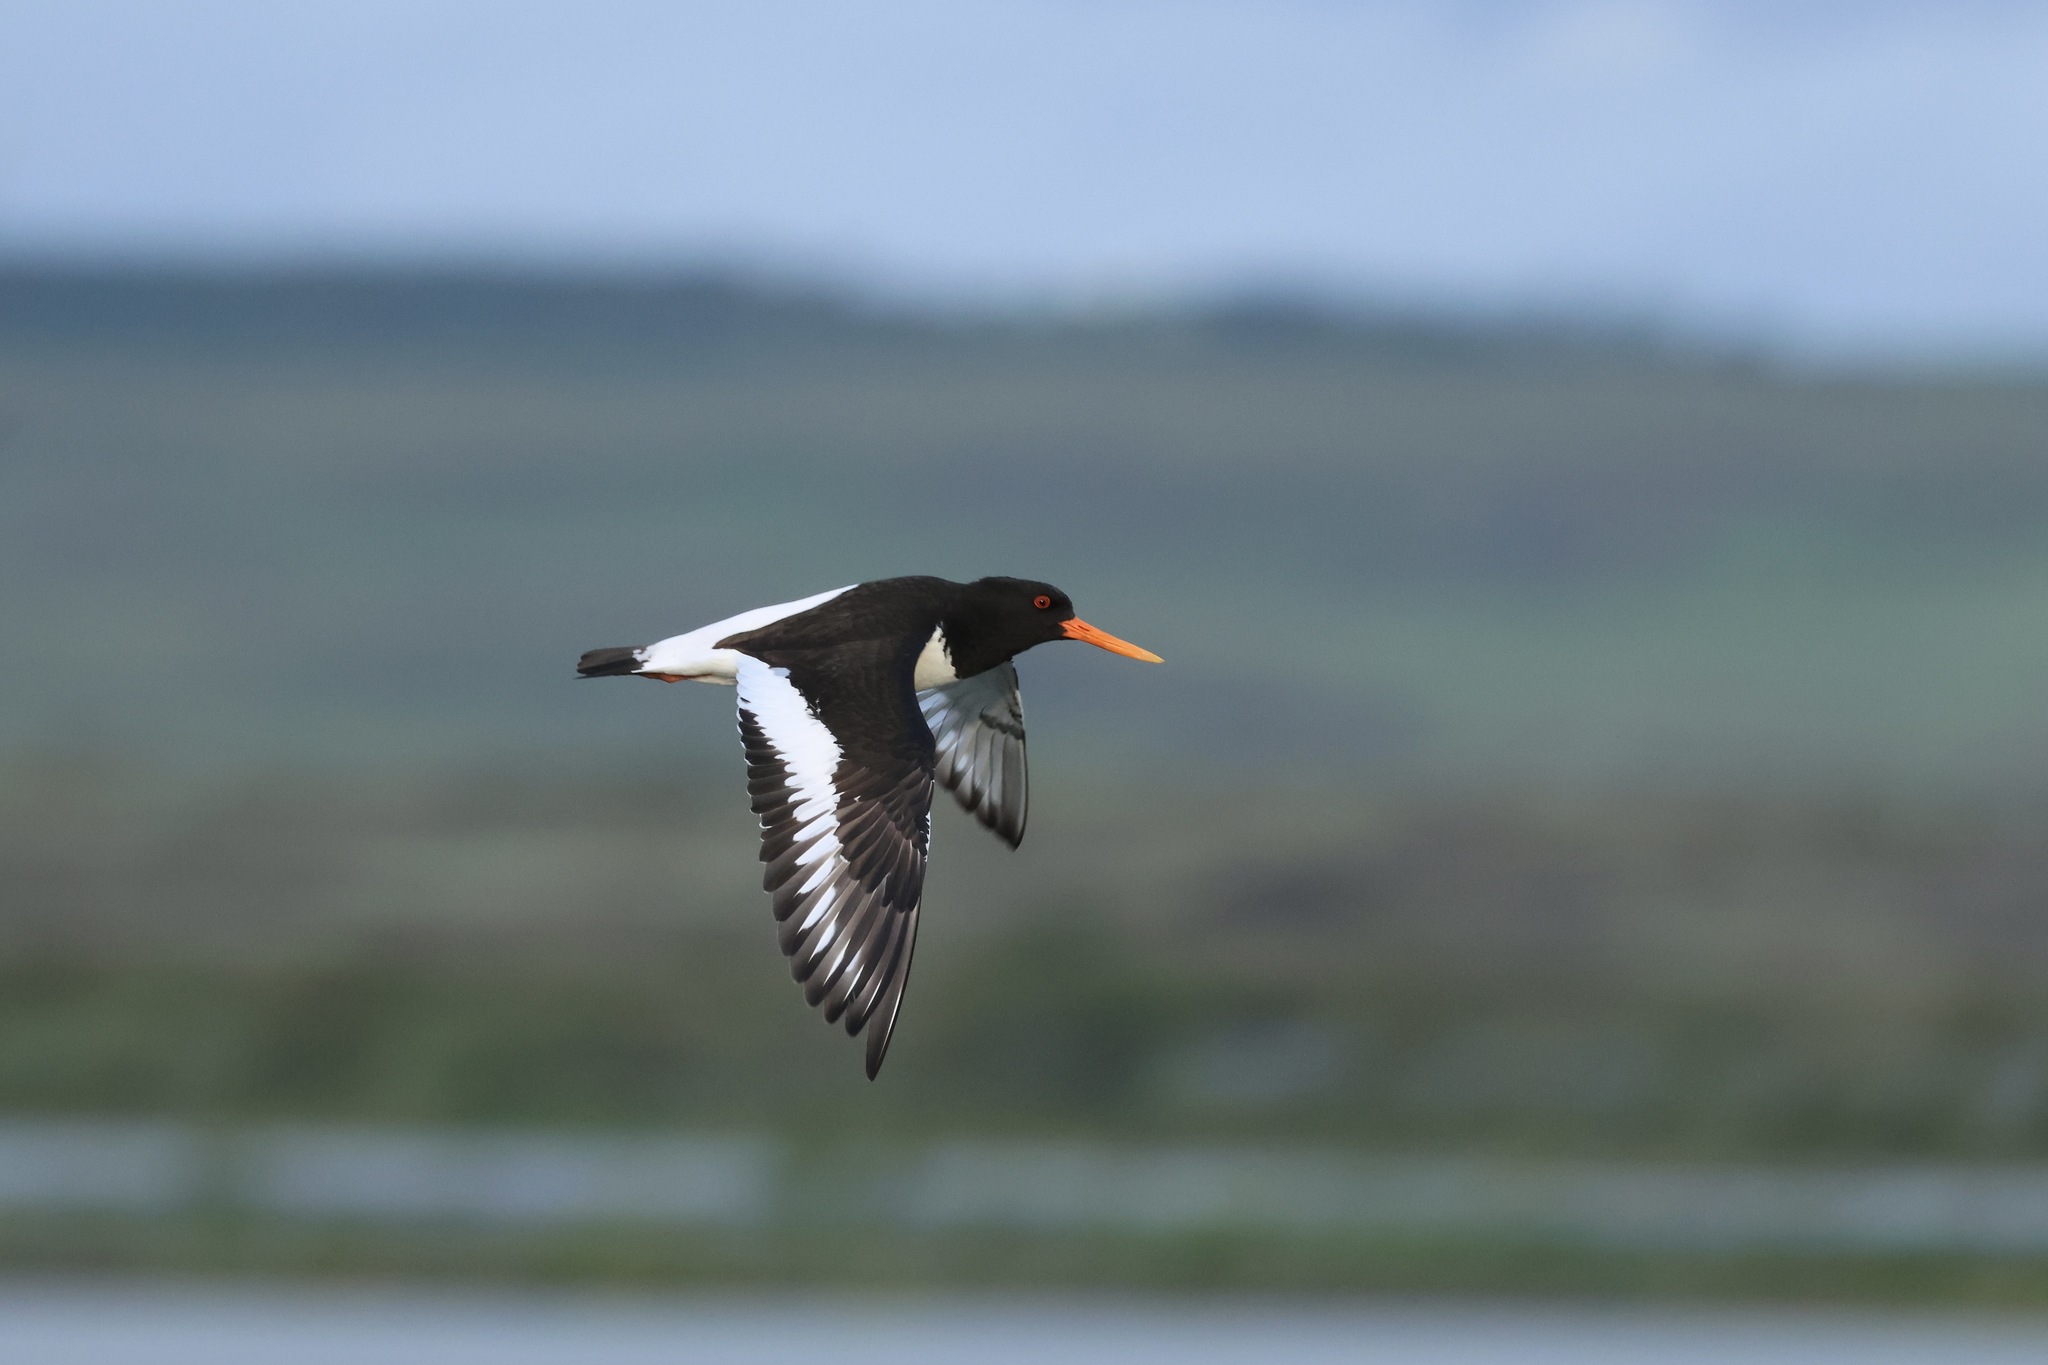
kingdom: Animalia
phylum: Chordata
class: Aves
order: Charadriiformes
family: Haematopodidae
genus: Haematopus
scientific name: Haematopus ostralegus
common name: Eurasian oystercatcher
